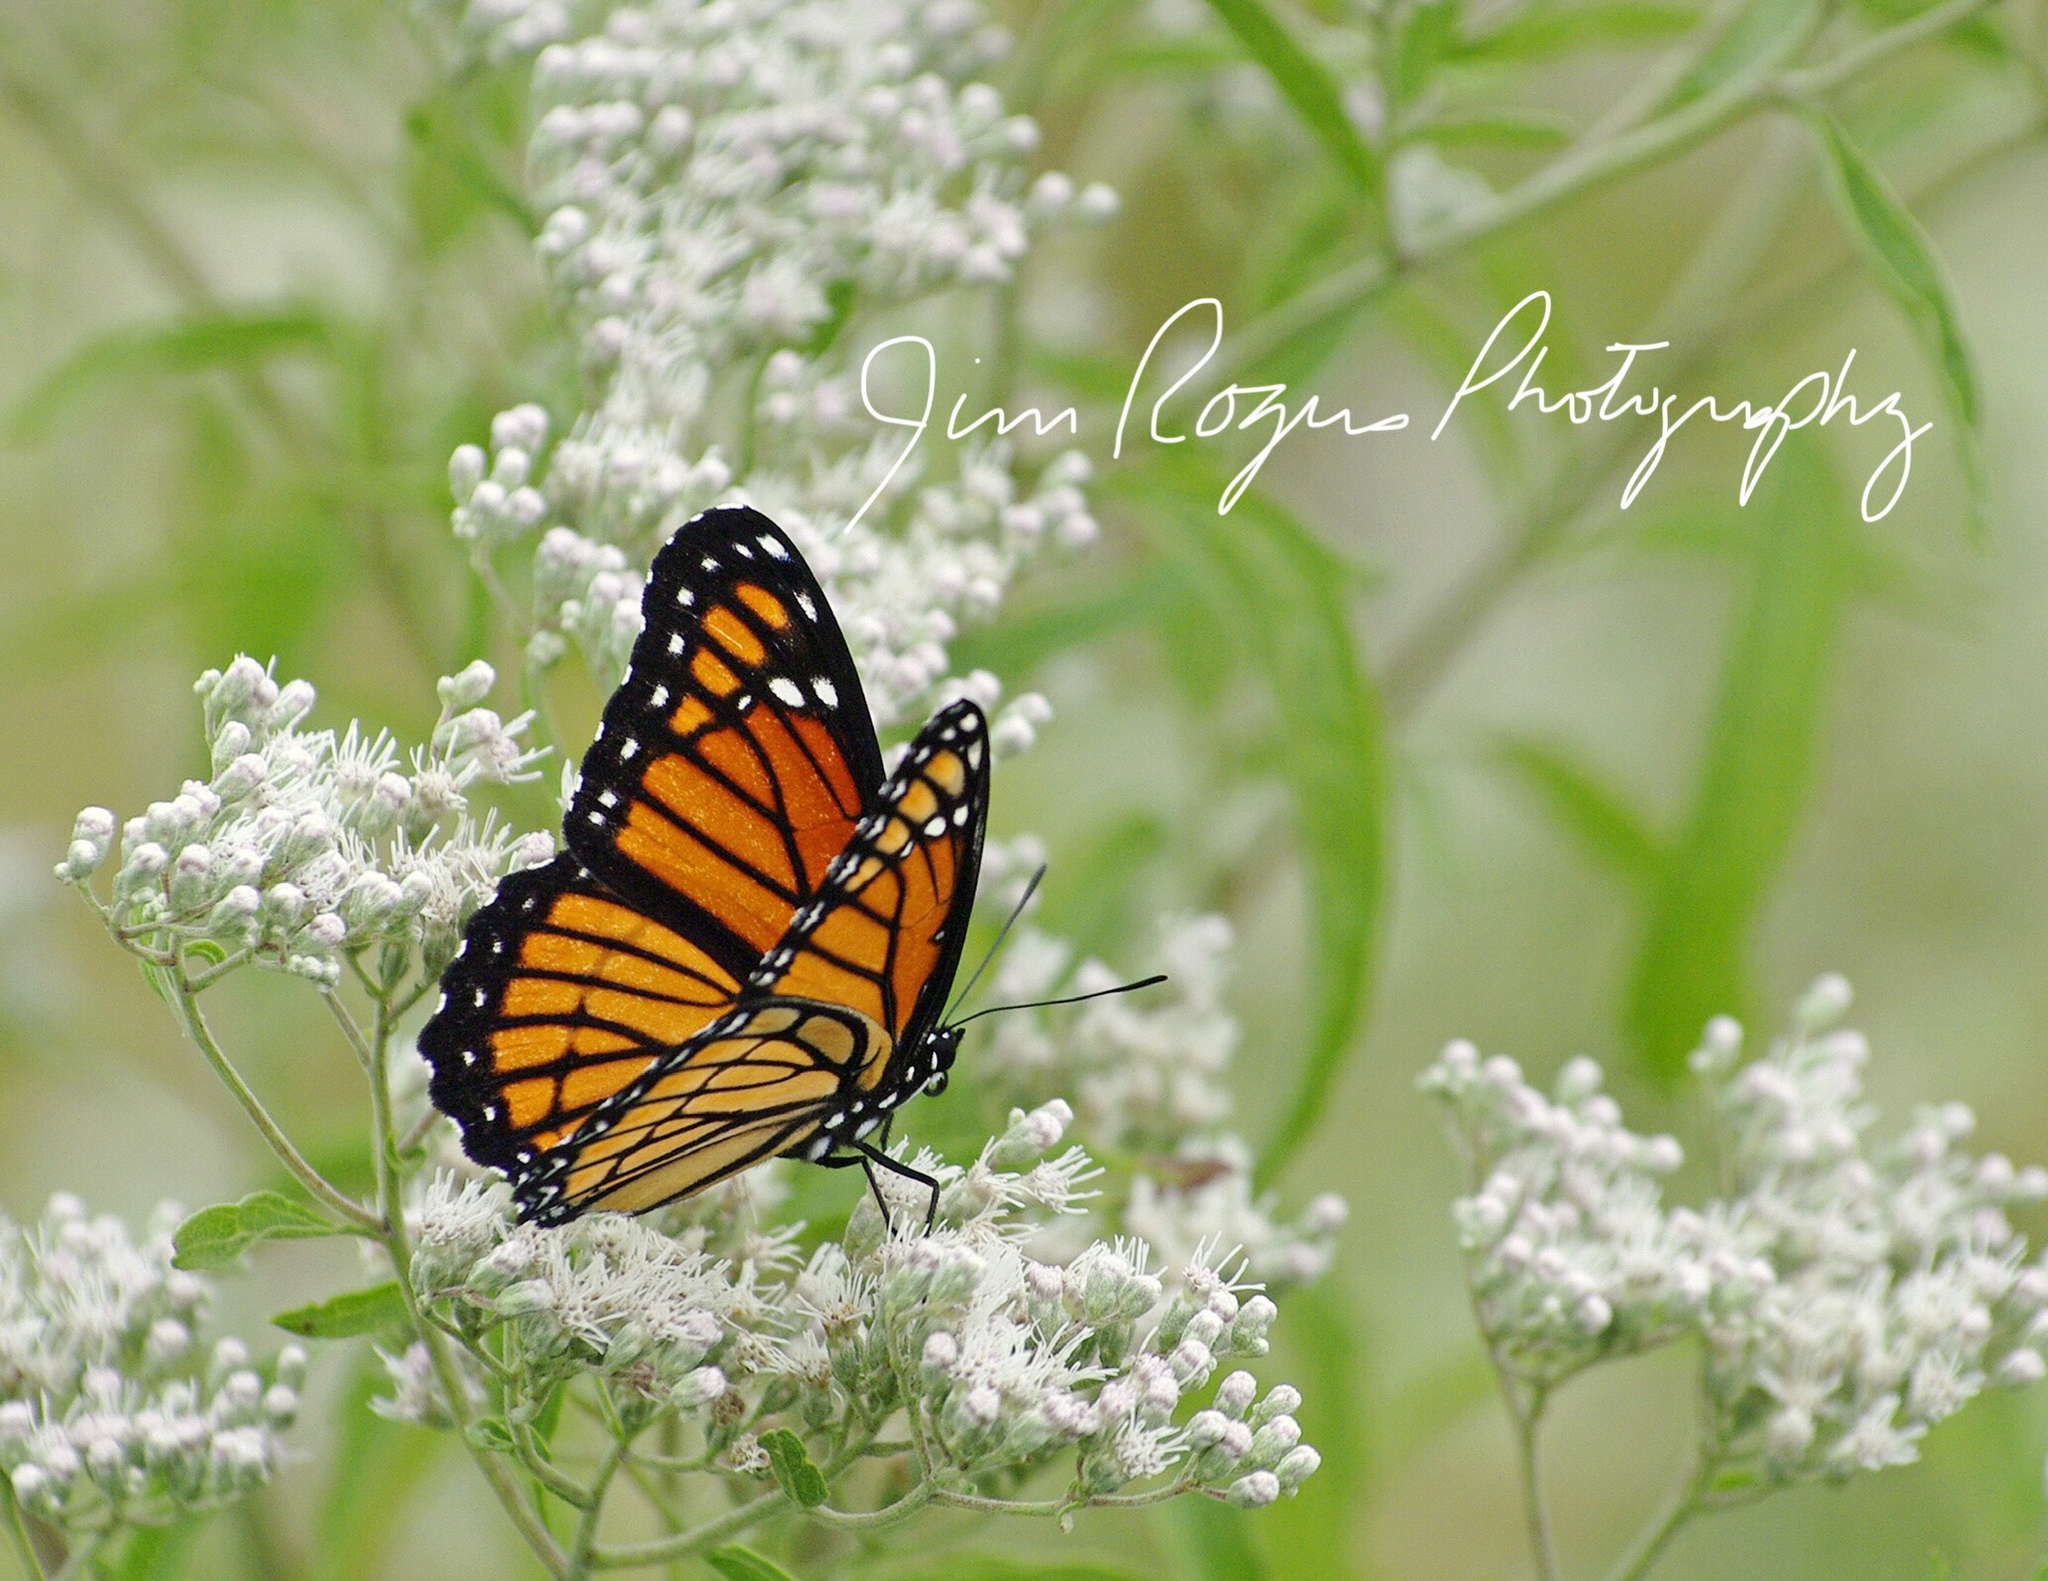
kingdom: Animalia
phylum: Arthropoda
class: Insecta
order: Lepidoptera
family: Nymphalidae
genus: Limenitis
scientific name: Limenitis archippus
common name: Viceroy
